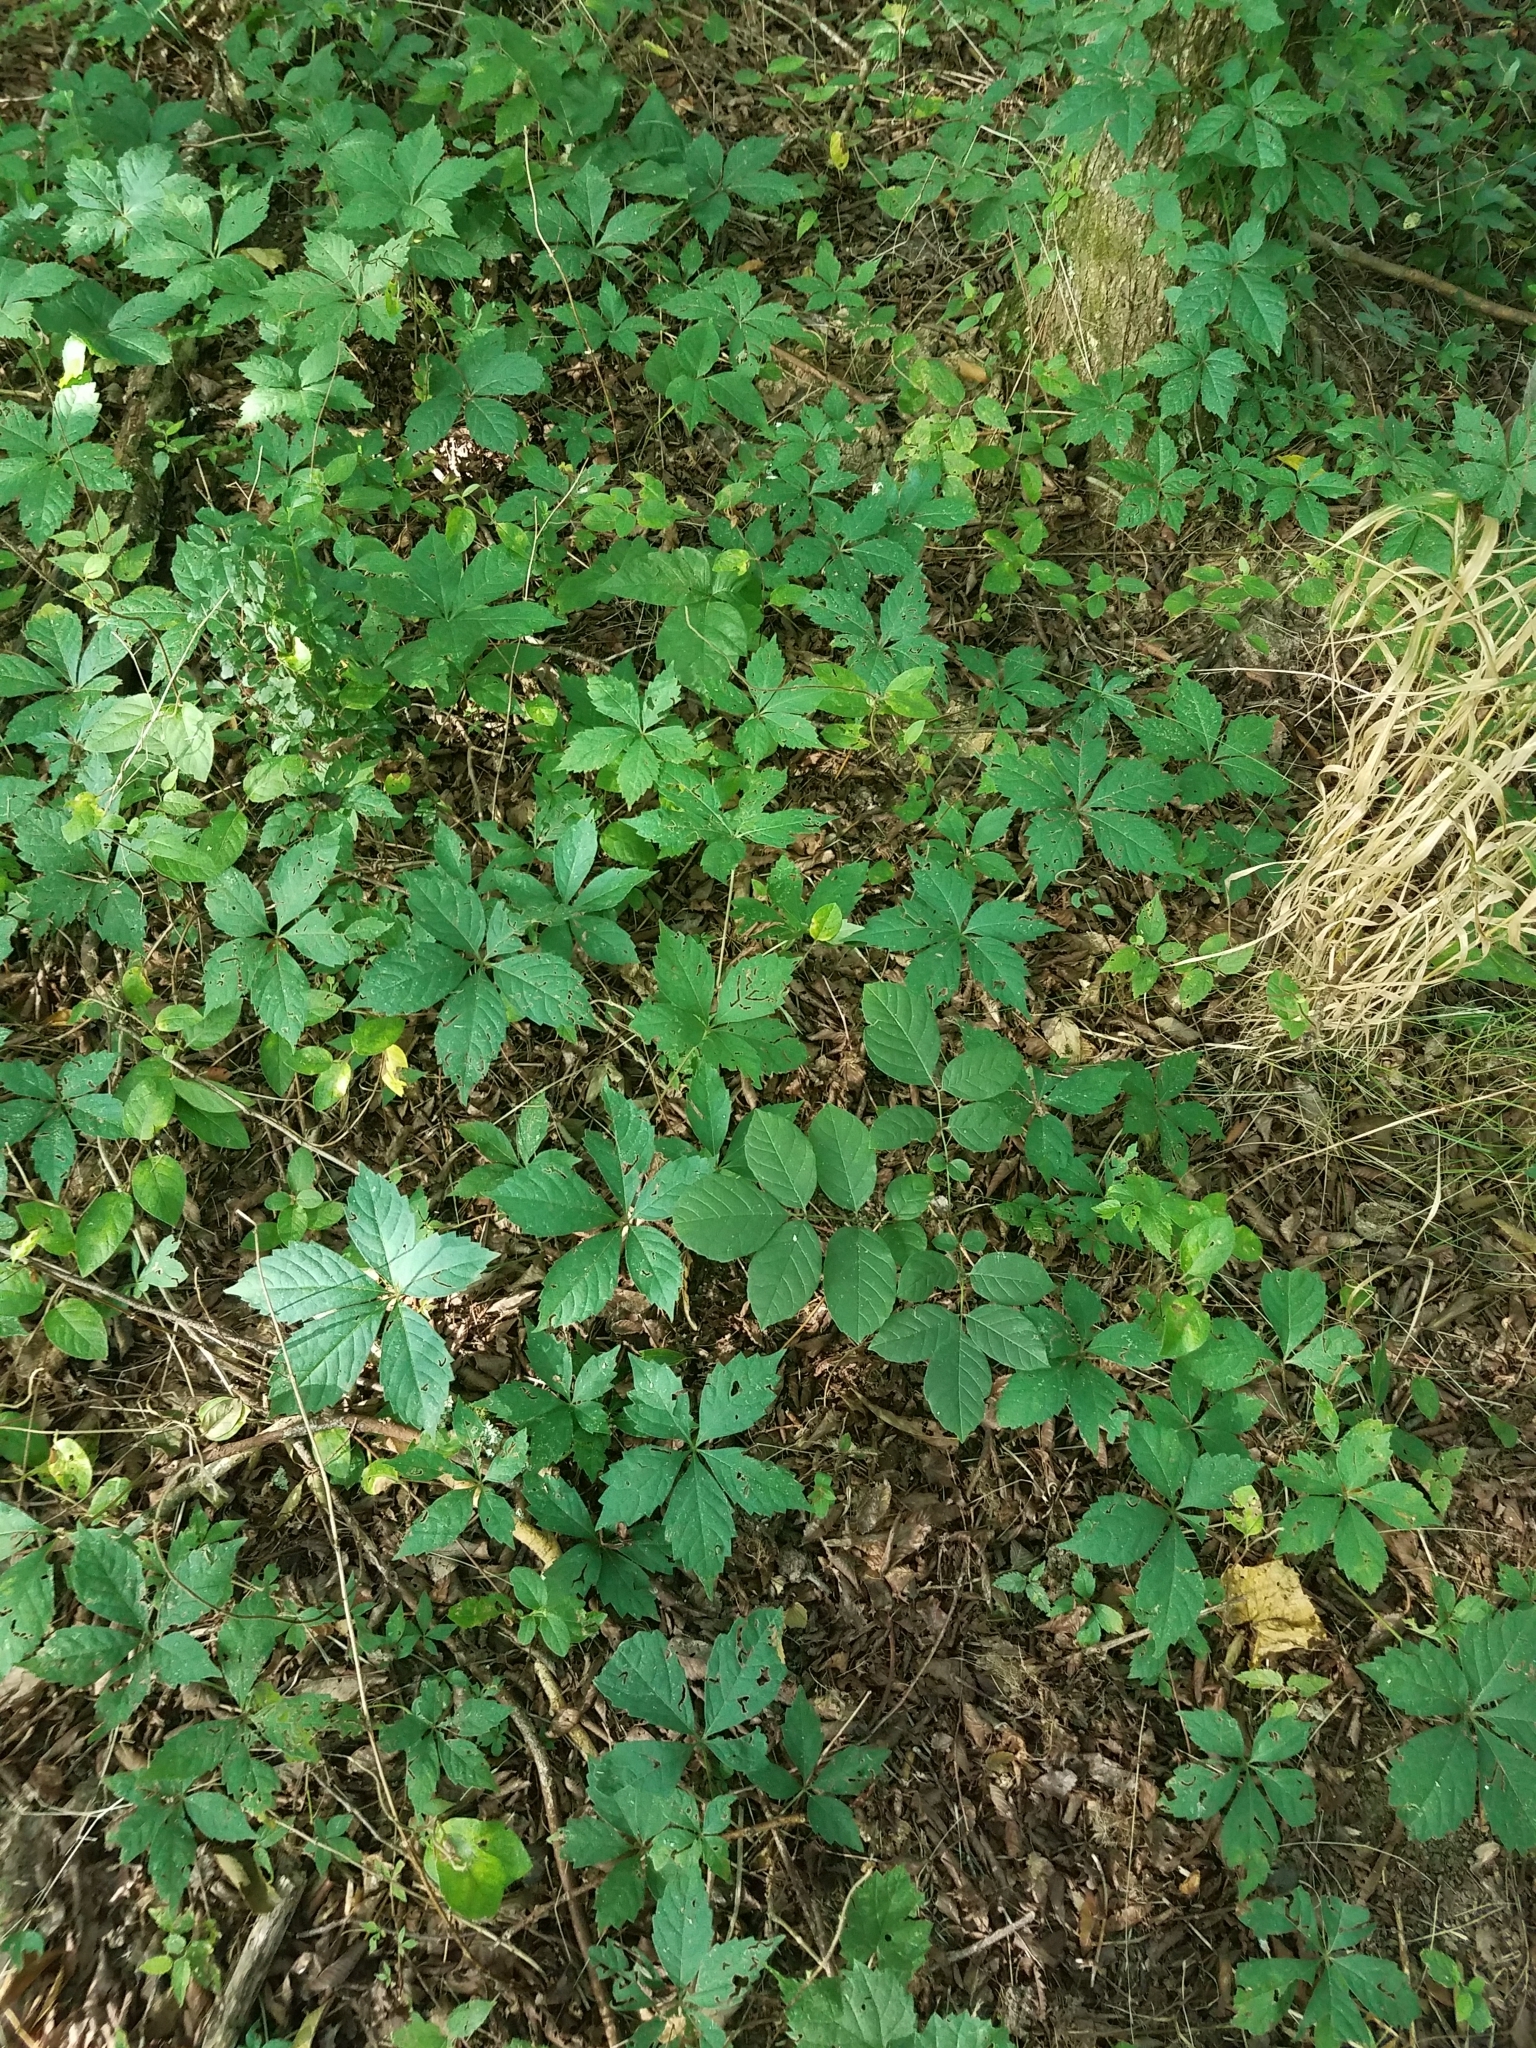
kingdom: Plantae
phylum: Tracheophyta
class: Magnoliopsida
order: Vitales
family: Vitaceae
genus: Parthenocissus
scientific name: Parthenocissus quinquefolia
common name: Virginia-creeper
